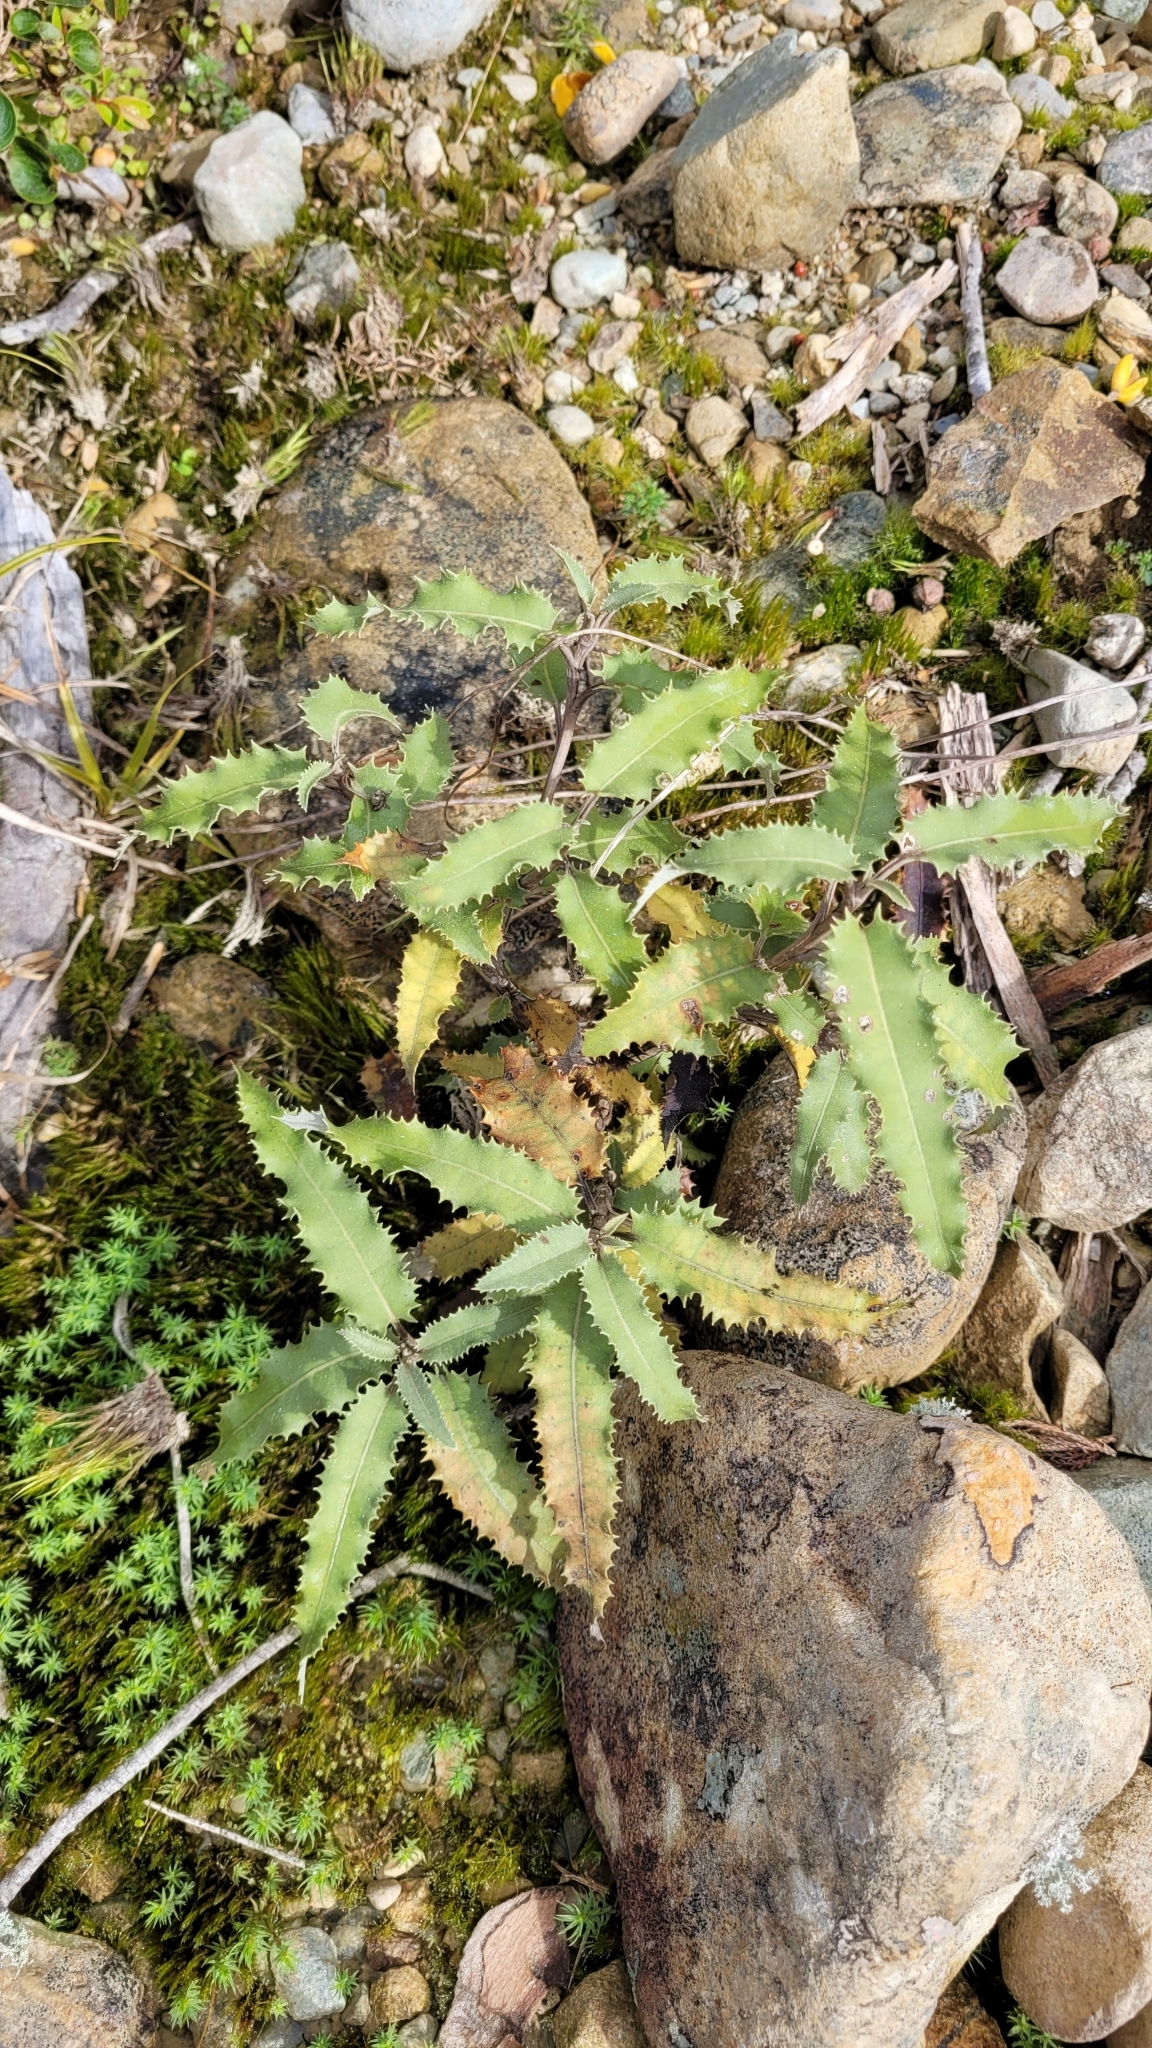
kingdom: Plantae
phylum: Tracheophyta
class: Magnoliopsida
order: Asterales
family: Asteraceae
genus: Olearia
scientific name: Olearia ilicifolia
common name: Maori-holly
